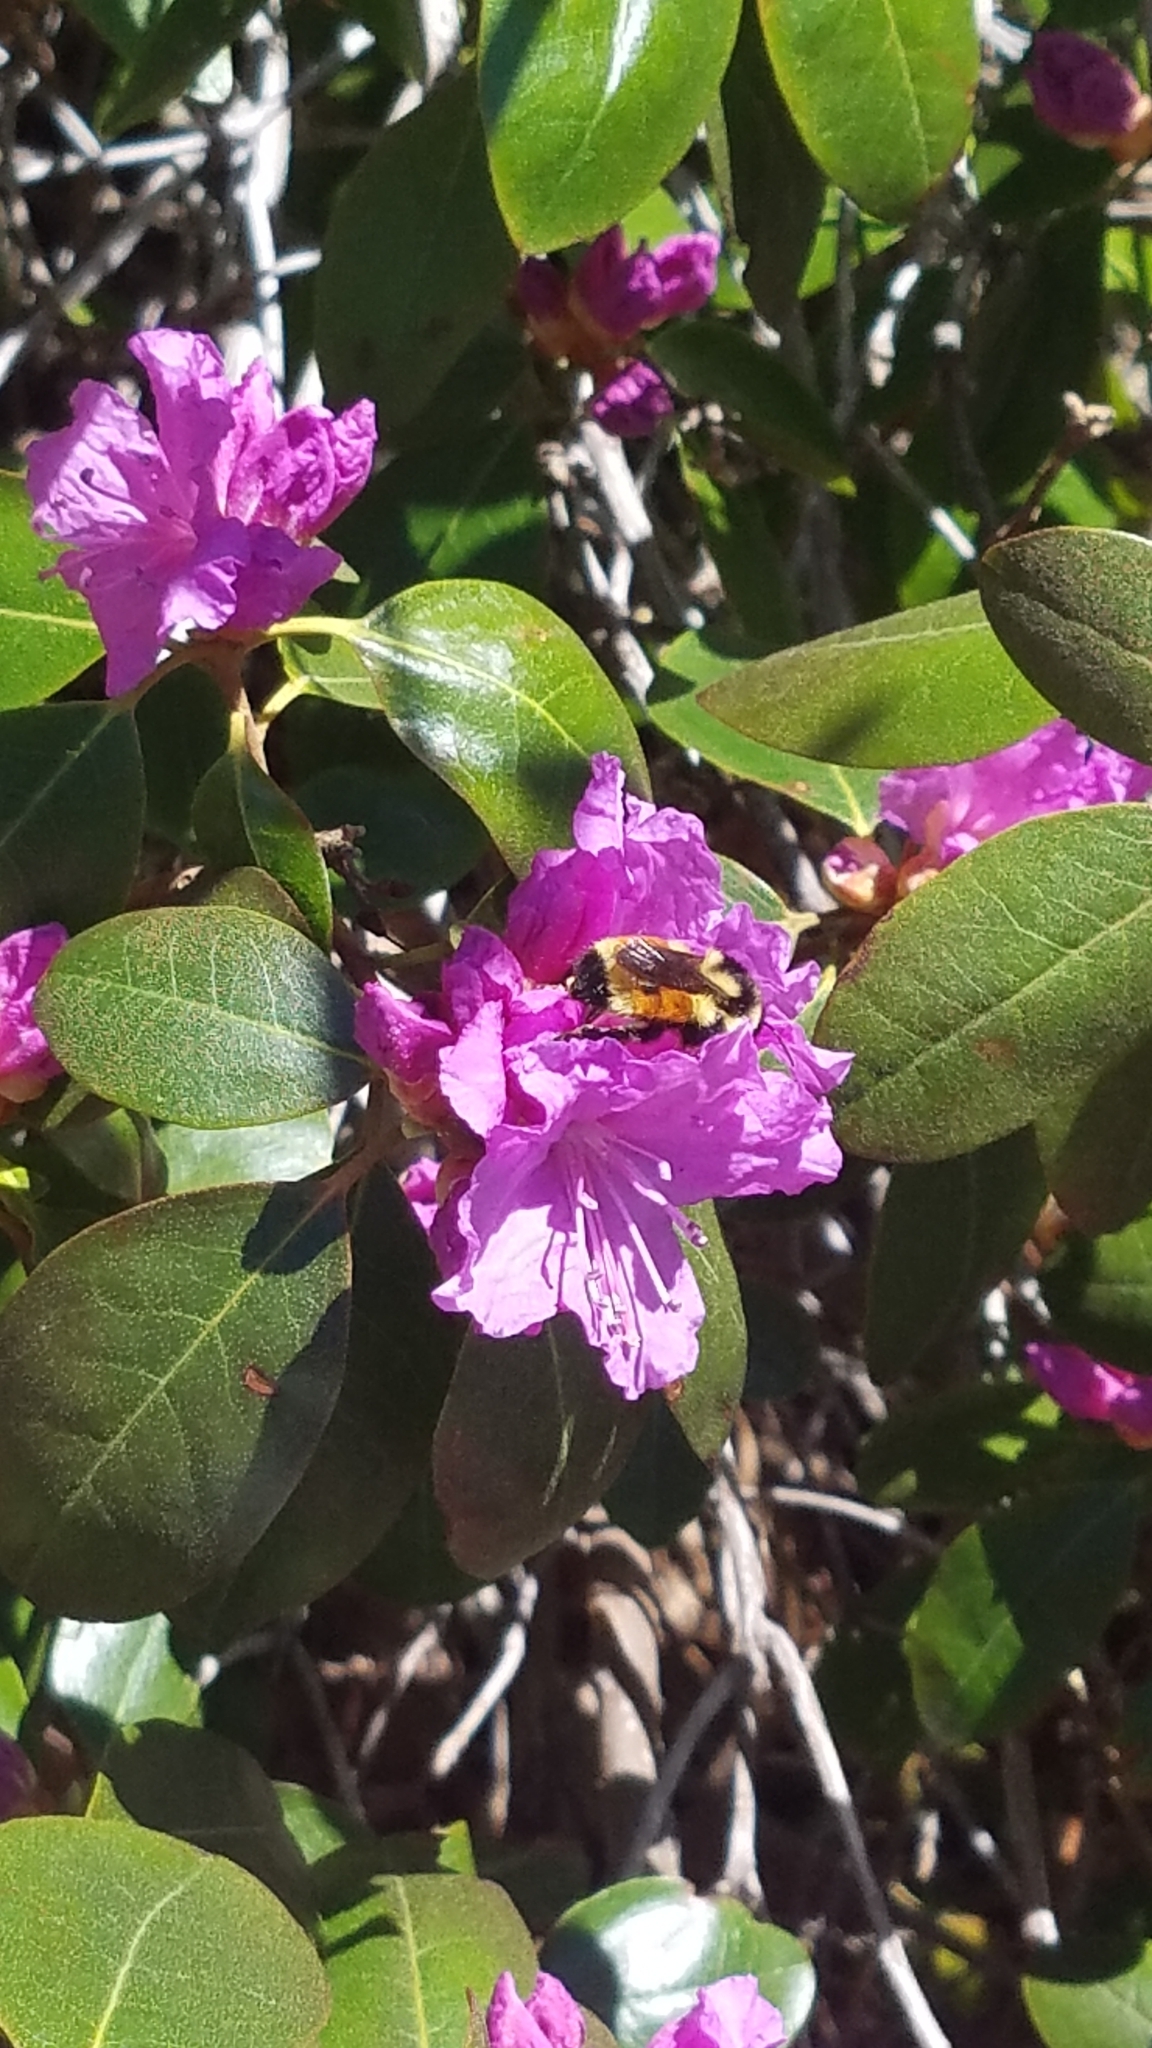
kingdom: Animalia
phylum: Arthropoda
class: Insecta
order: Hymenoptera
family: Apidae
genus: Bombus
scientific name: Bombus ternarius
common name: Tri-colored bumble bee
